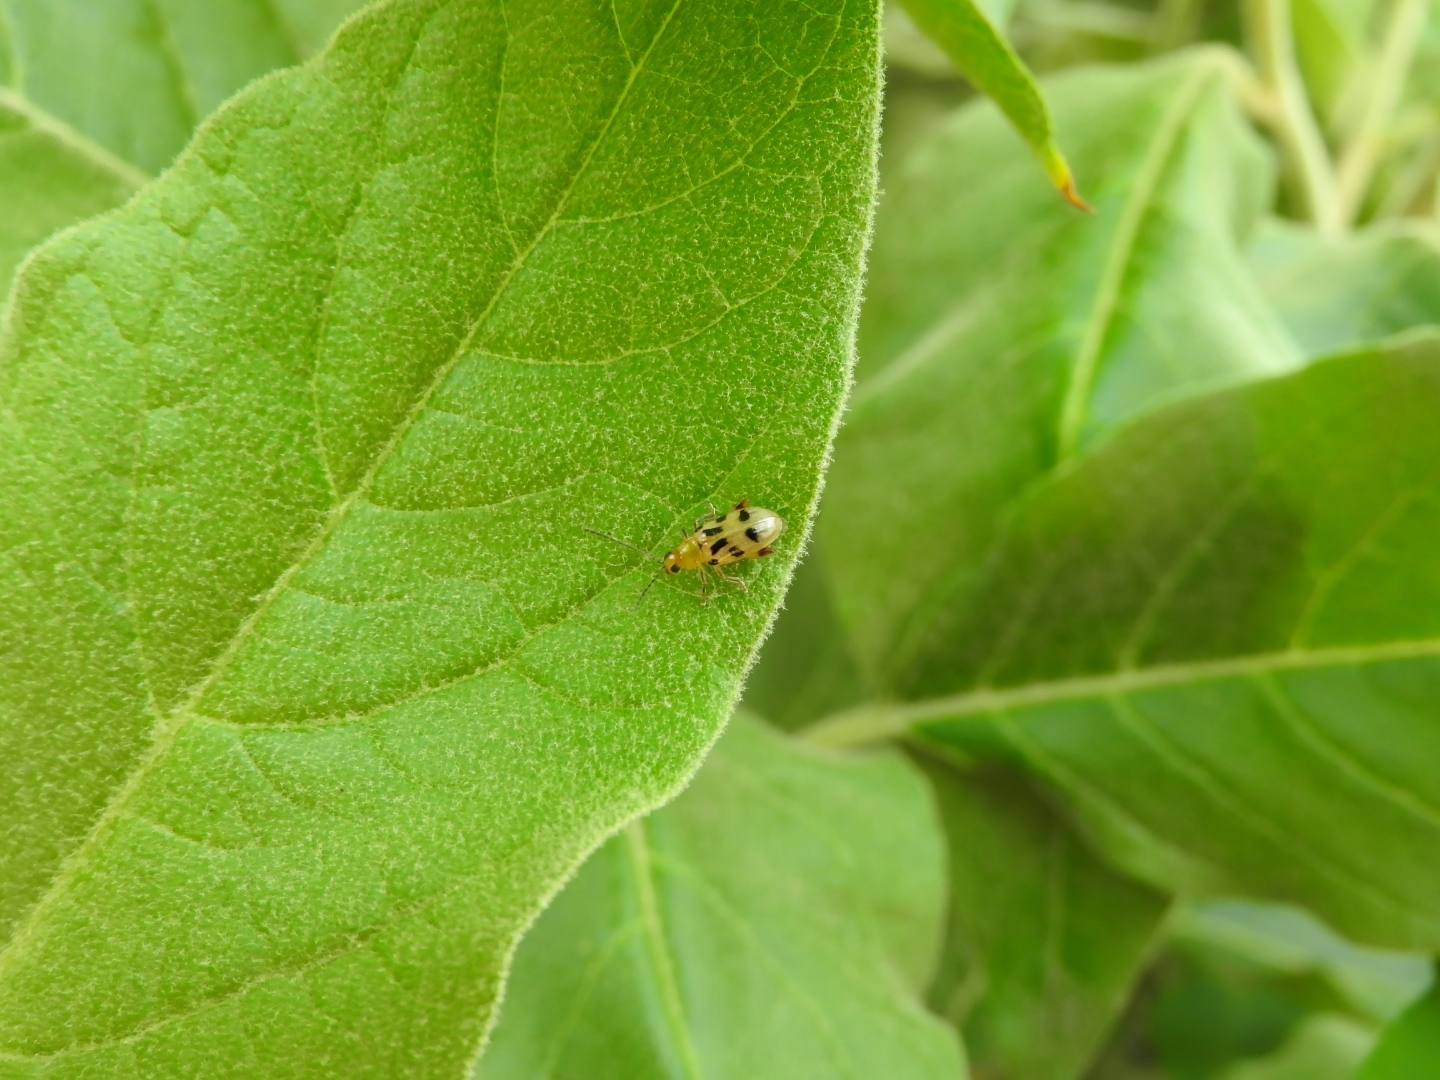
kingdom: Animalia
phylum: Arthropoda
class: Insecta
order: Coleoptera
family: Chrysomelidae
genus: Systena
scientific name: Systena
